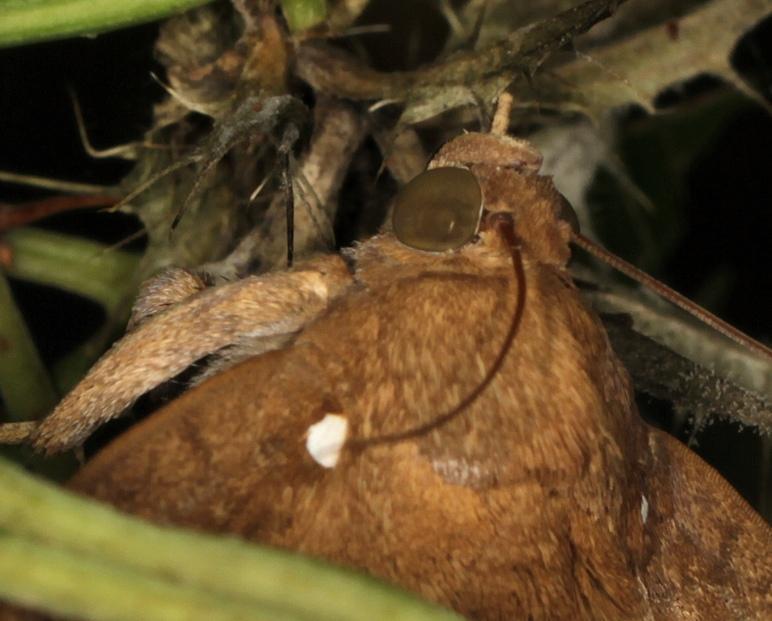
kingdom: Animalia
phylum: Arthropoda
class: Insecta
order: Lepidoptera
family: Erebidae
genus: Achaea
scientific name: Achaea illustrata
